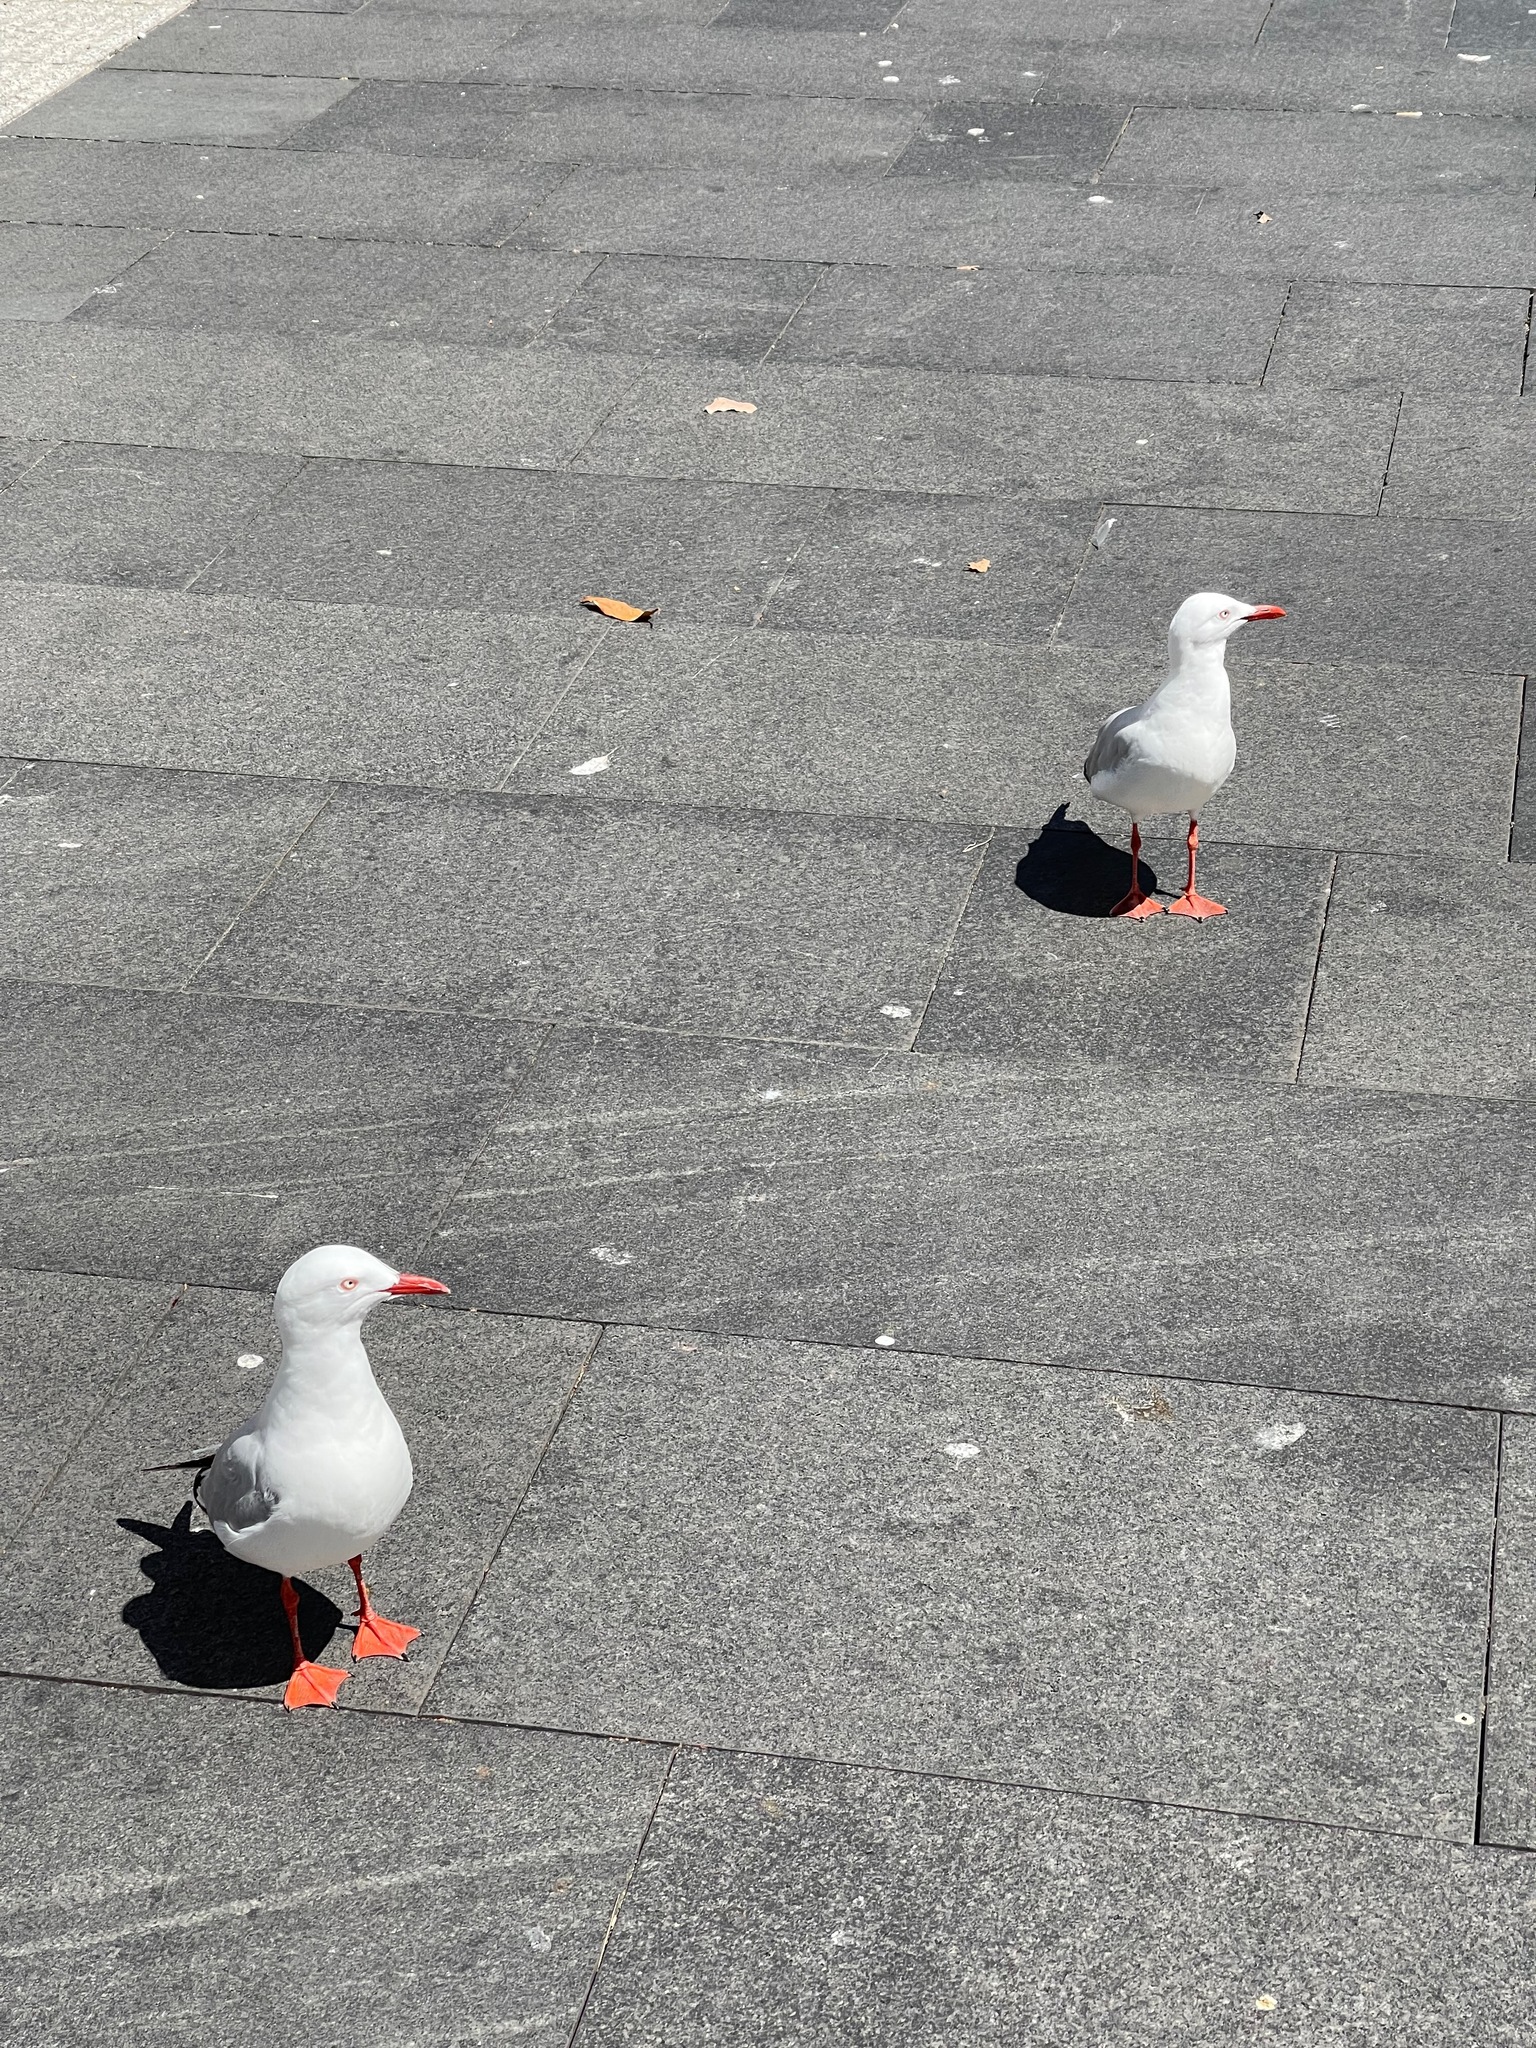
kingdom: Animalia
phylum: Chordata
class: Aves
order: Charadriiformes
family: Laridae
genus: Chroicocephalus
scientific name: Chroicocephalus novaehollandiae
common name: Silver gull
